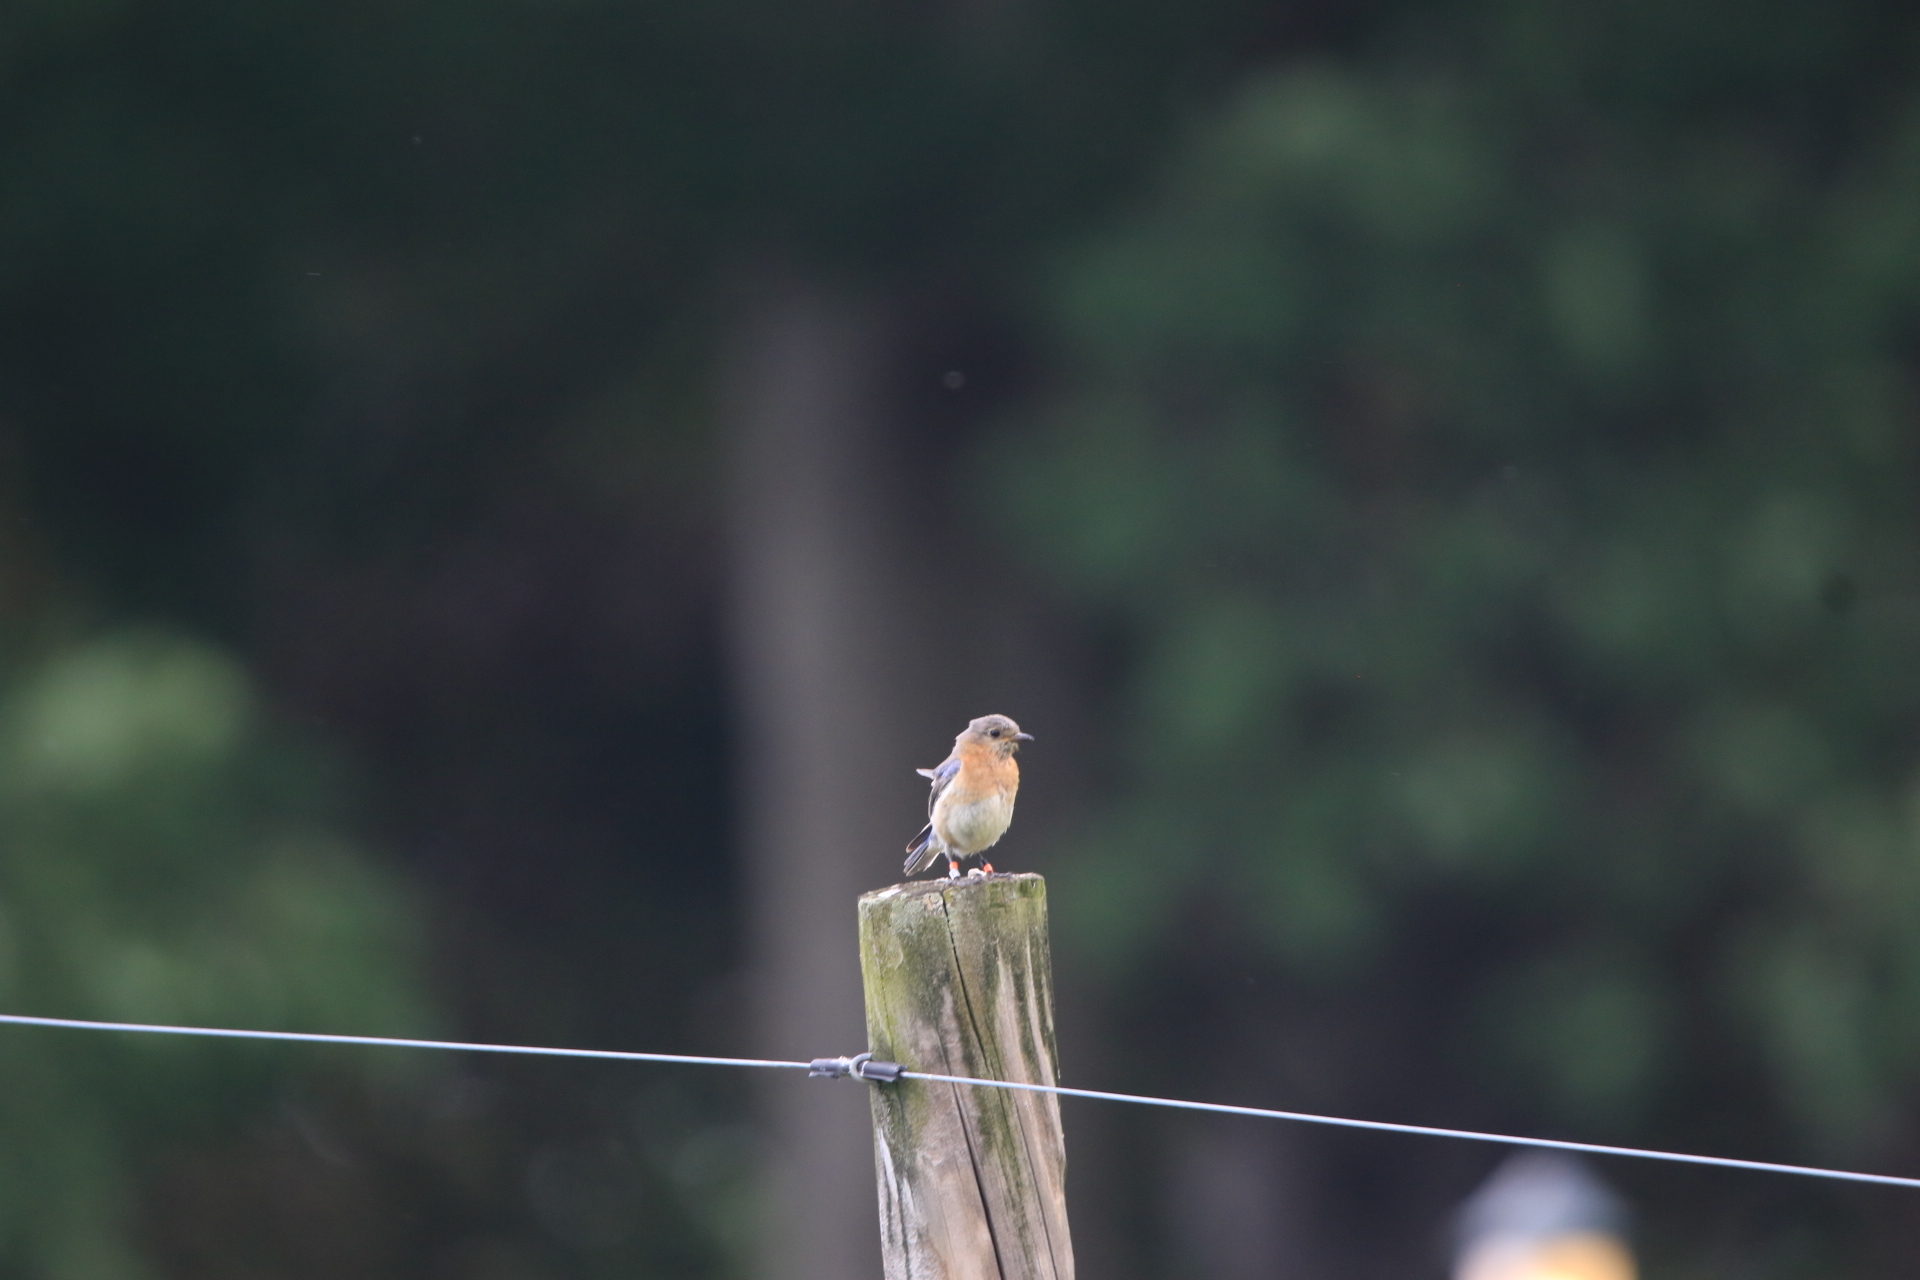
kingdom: Animalia
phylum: Chordata
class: Aves
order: Passeriformes
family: Turdidae
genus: Sialia
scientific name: Sialia sialis
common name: Eastern bluebird
